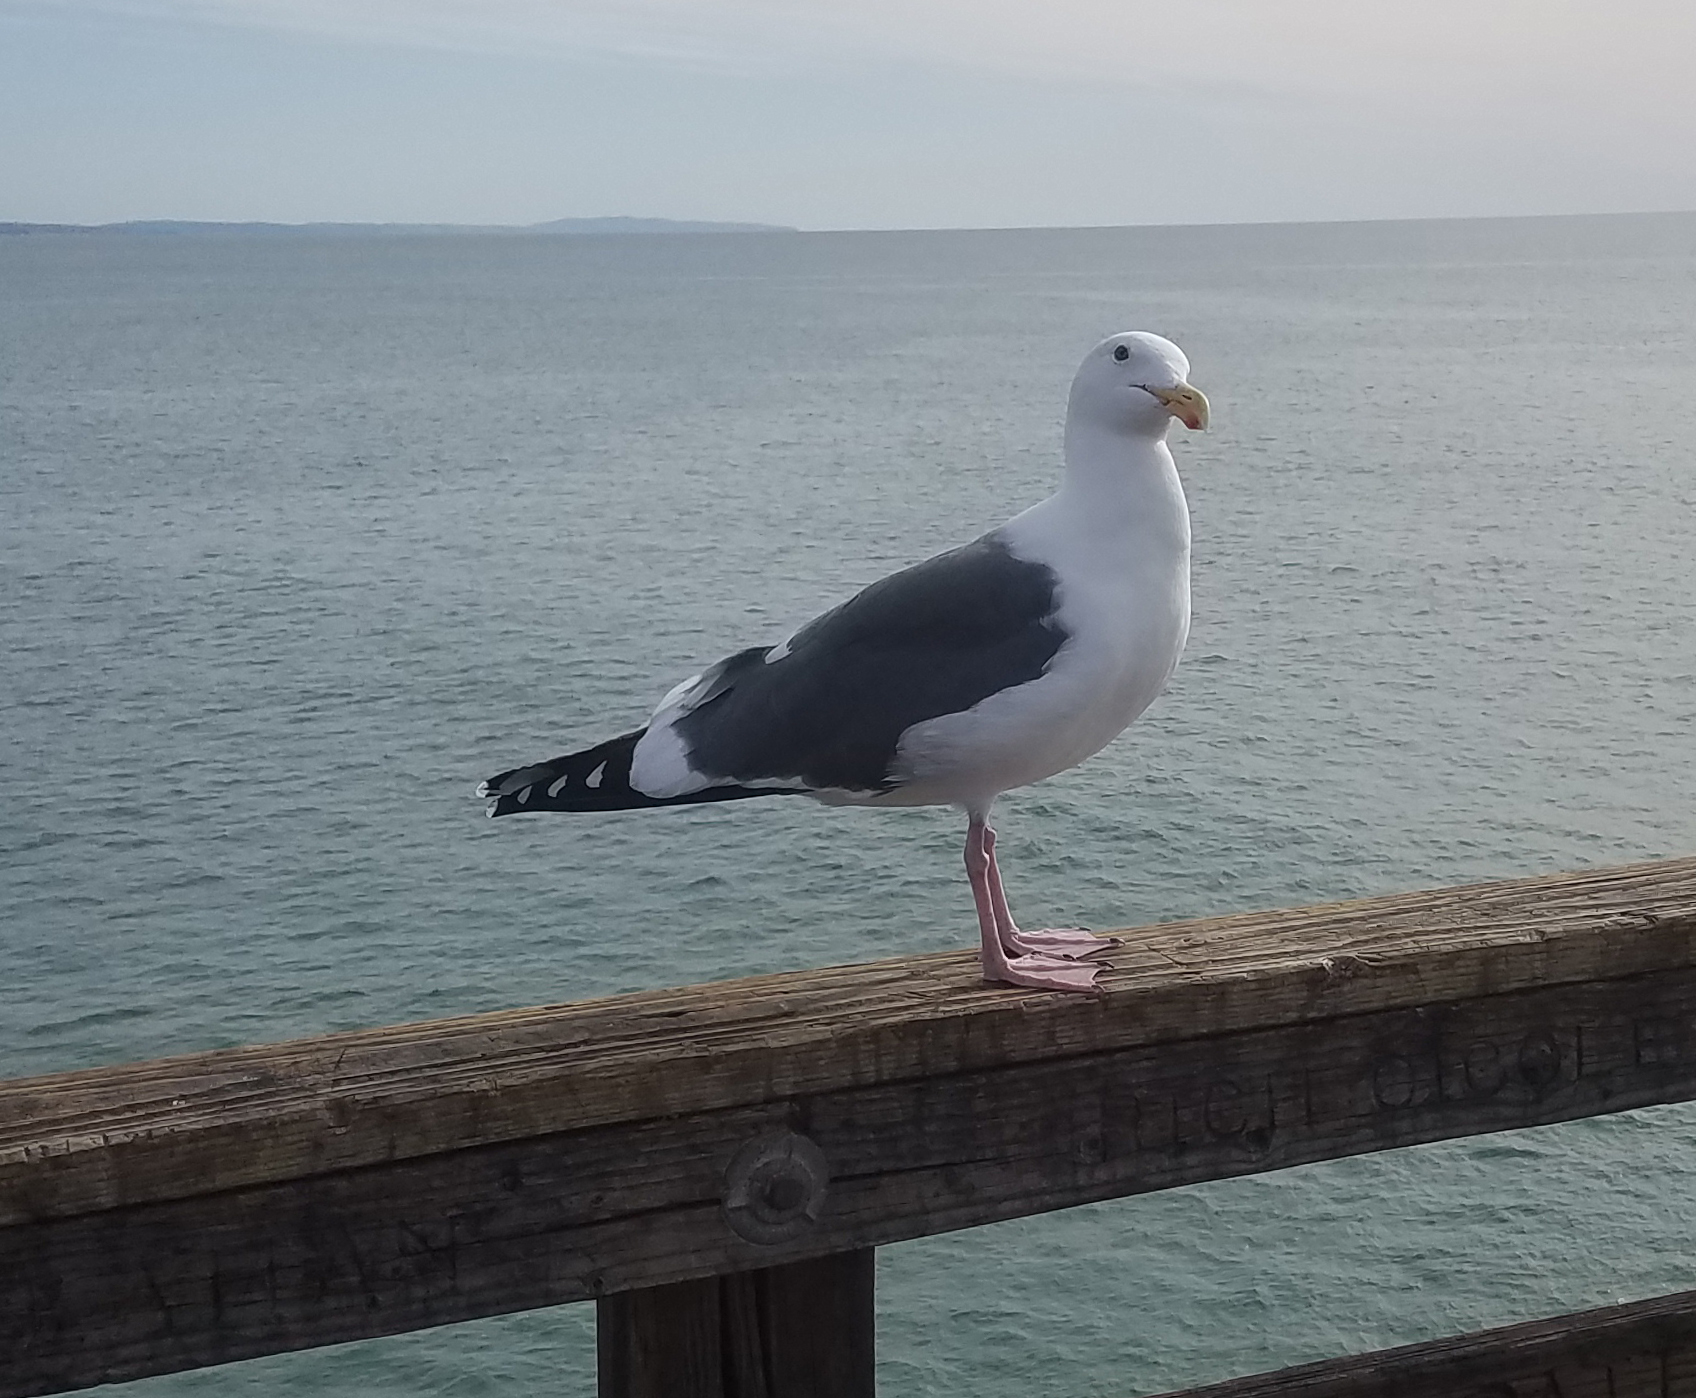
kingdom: Animalia
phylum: Chordata
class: Aves
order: Charadriiformes
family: Laridae
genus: Larus
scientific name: Larus occidentalis
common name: Western gull
